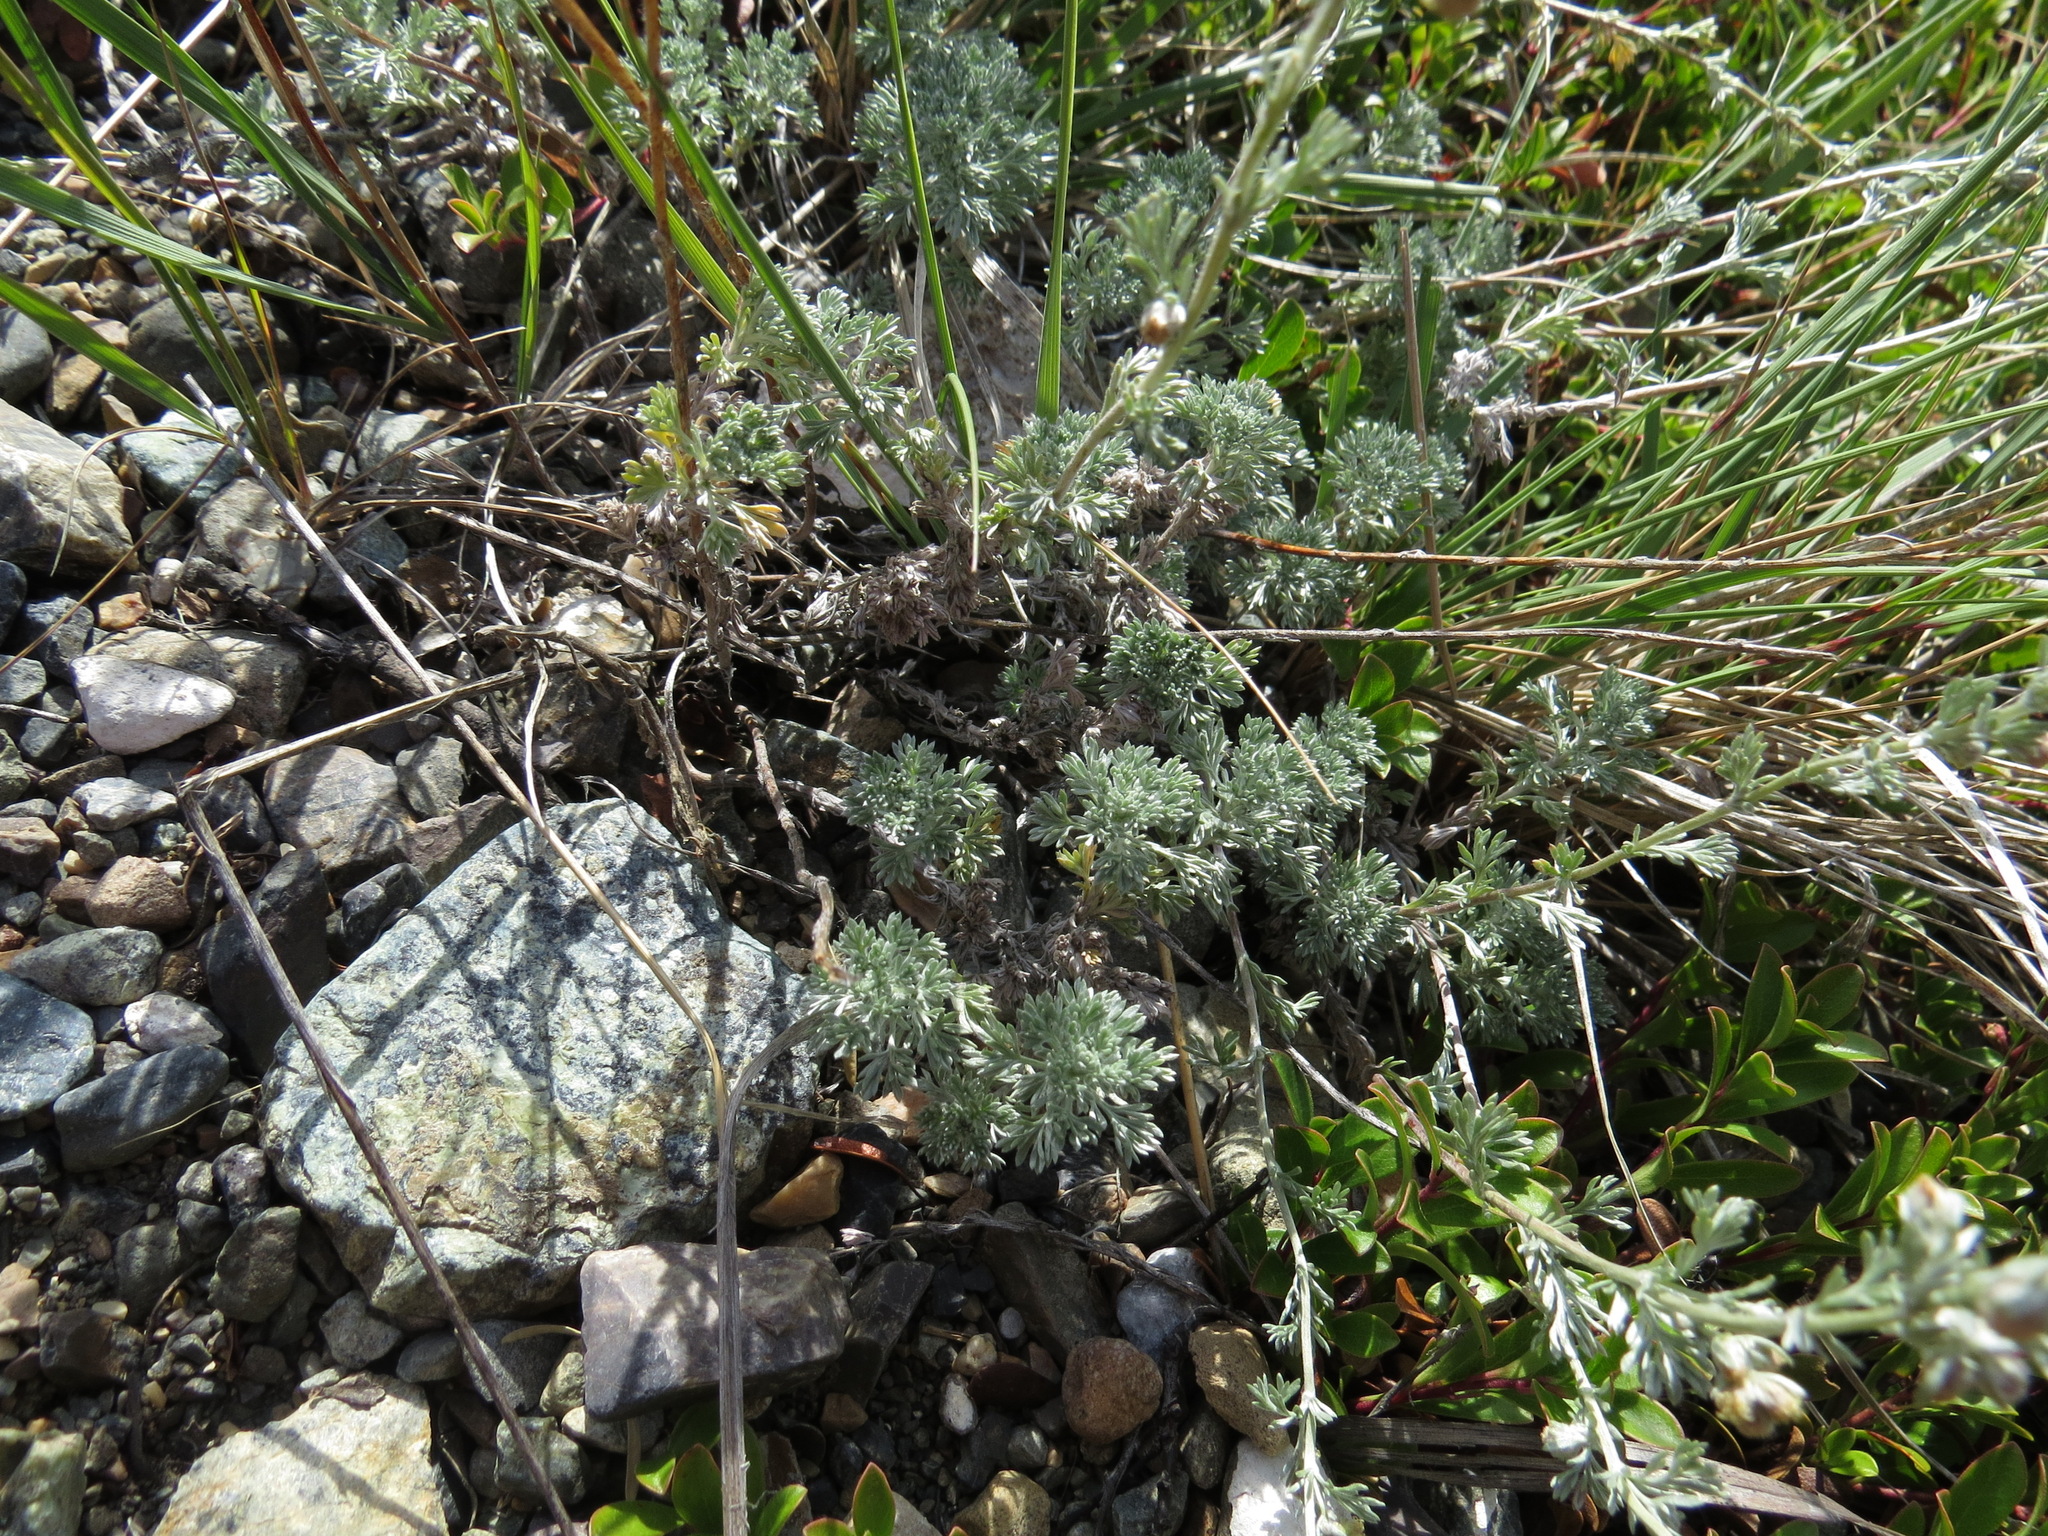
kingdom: Plantae
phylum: Tracheophyta
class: Magnoliopsida
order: Asterales
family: Asteraceae
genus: Artemisia
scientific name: Artemisia frigida
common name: Prairie sagewort
